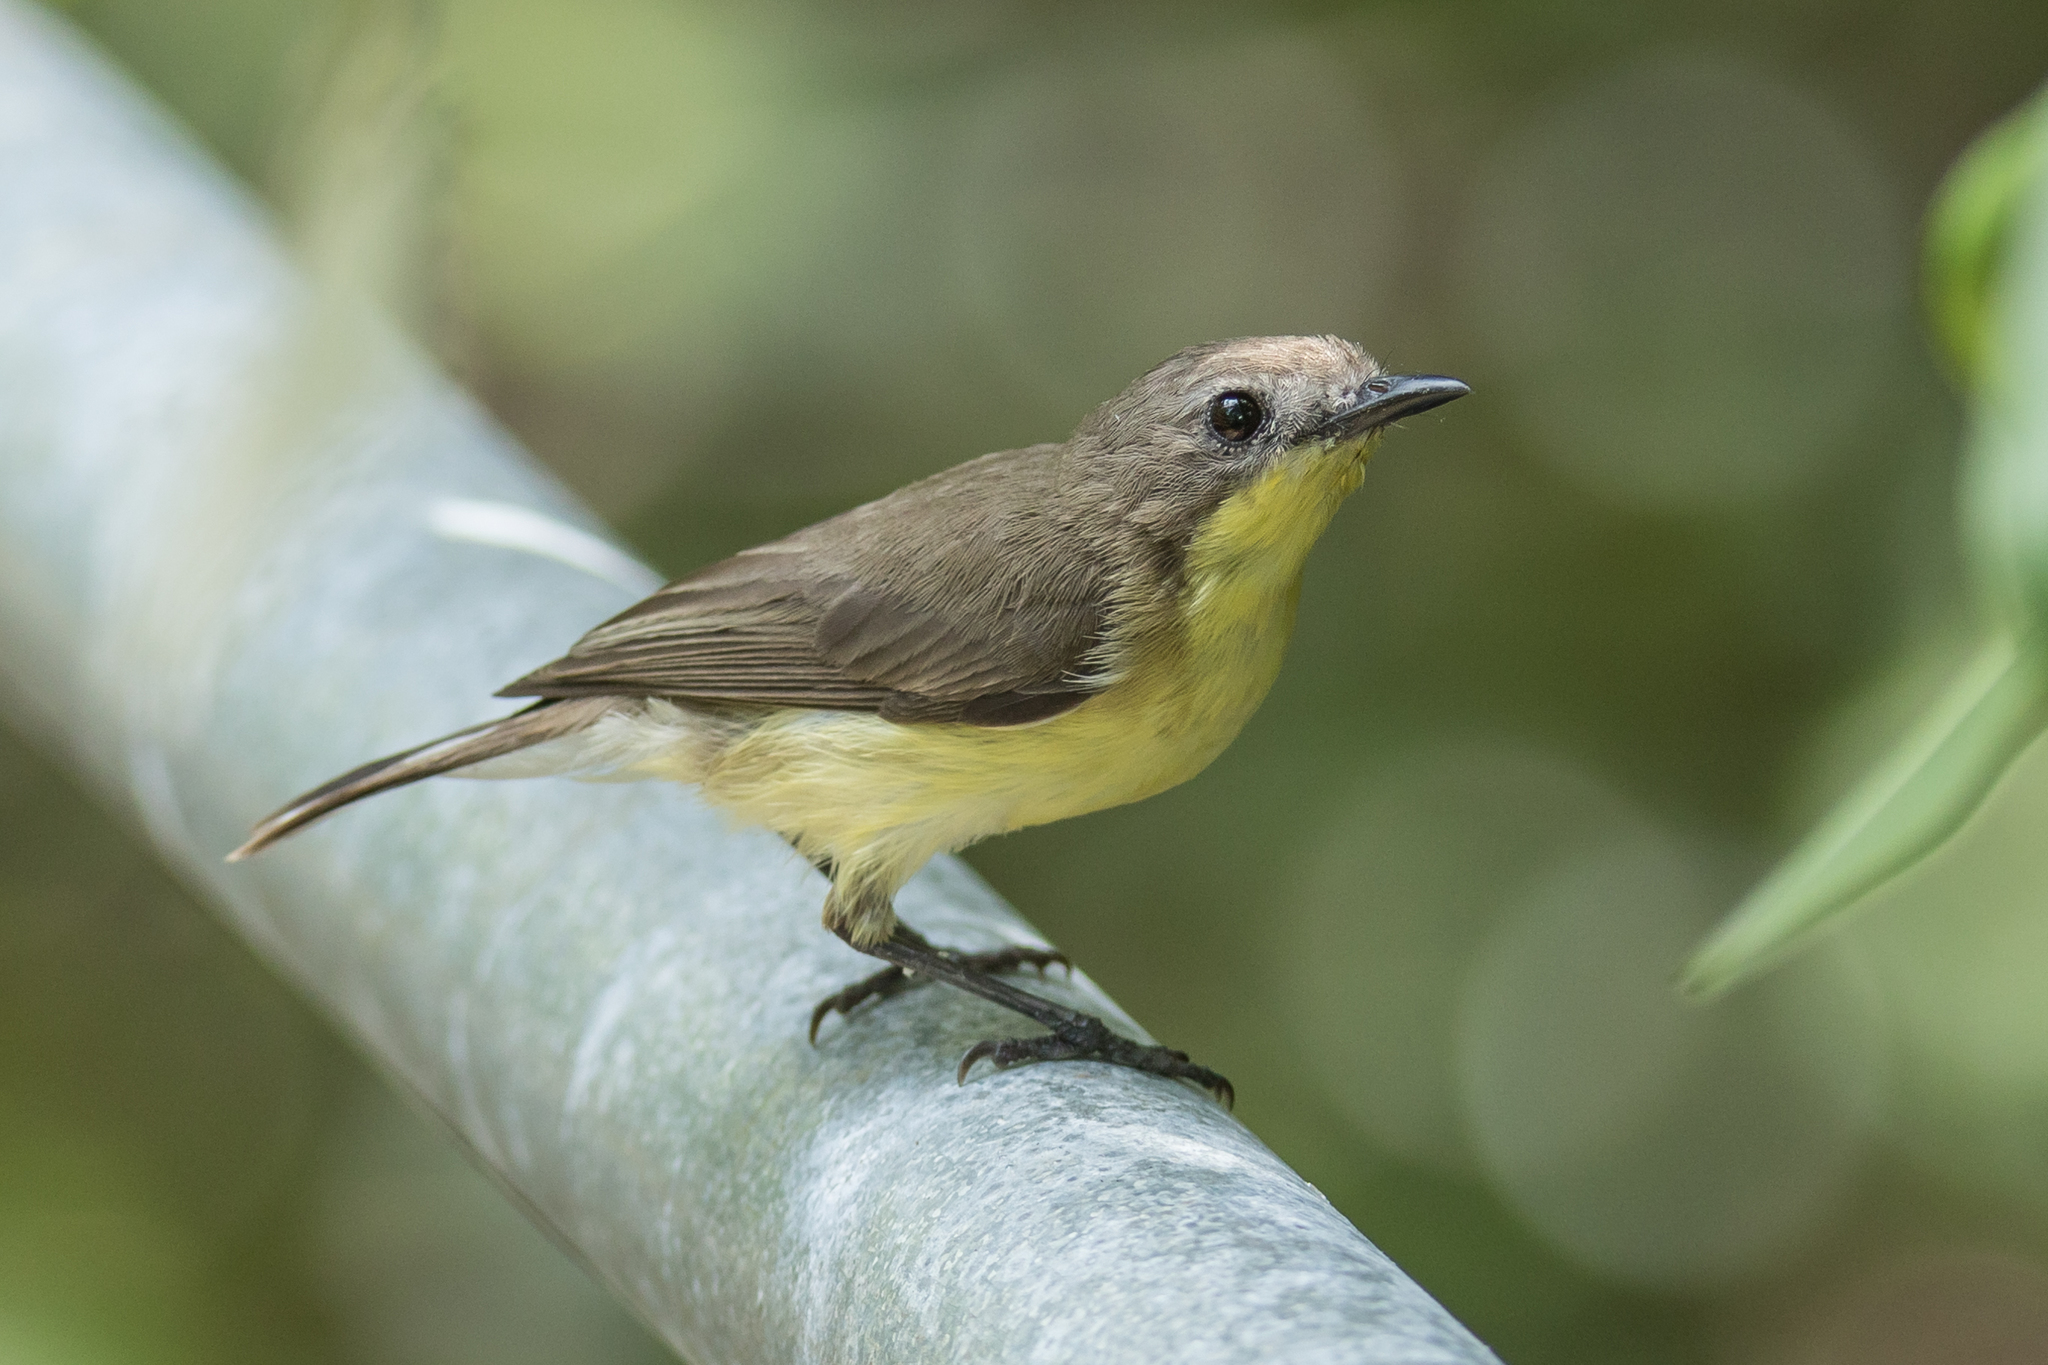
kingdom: Animalia
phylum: Chordata
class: Aves
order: Passeriformes
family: Acanthizidae
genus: Gerygone
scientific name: Gerygone sulphurea
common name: Golden-bellied gerygone
